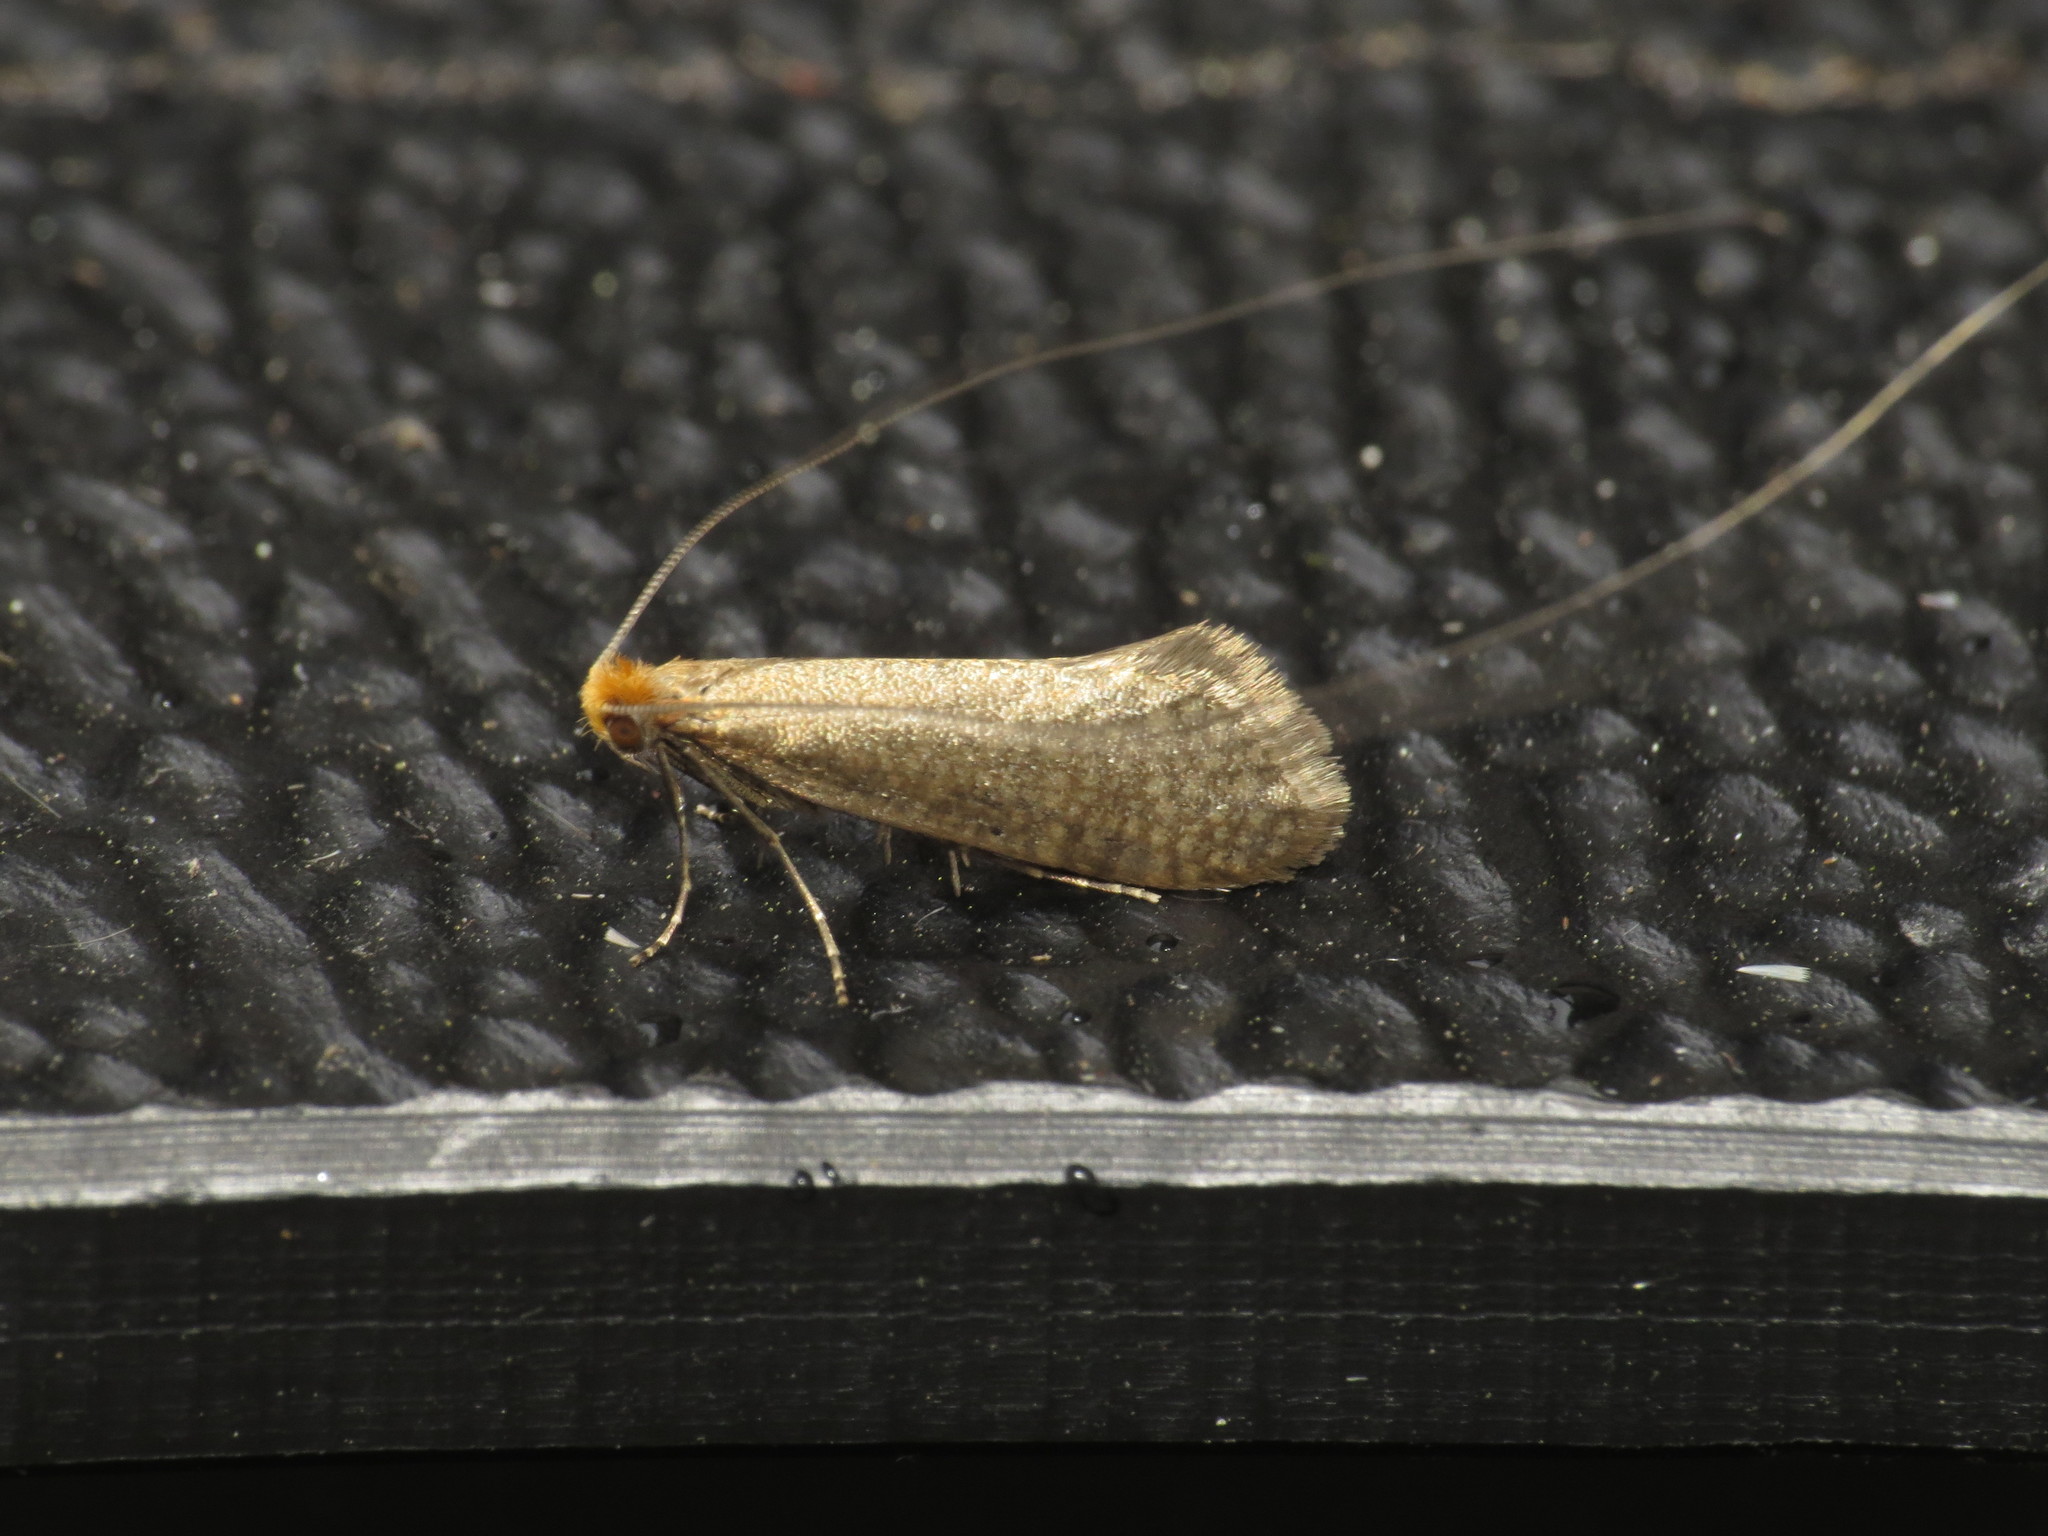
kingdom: Animalia
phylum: Arthropoda
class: Insecta
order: Lepidoptera
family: Adelidae
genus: Nematopogon
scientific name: Nematopogon adansoniella
